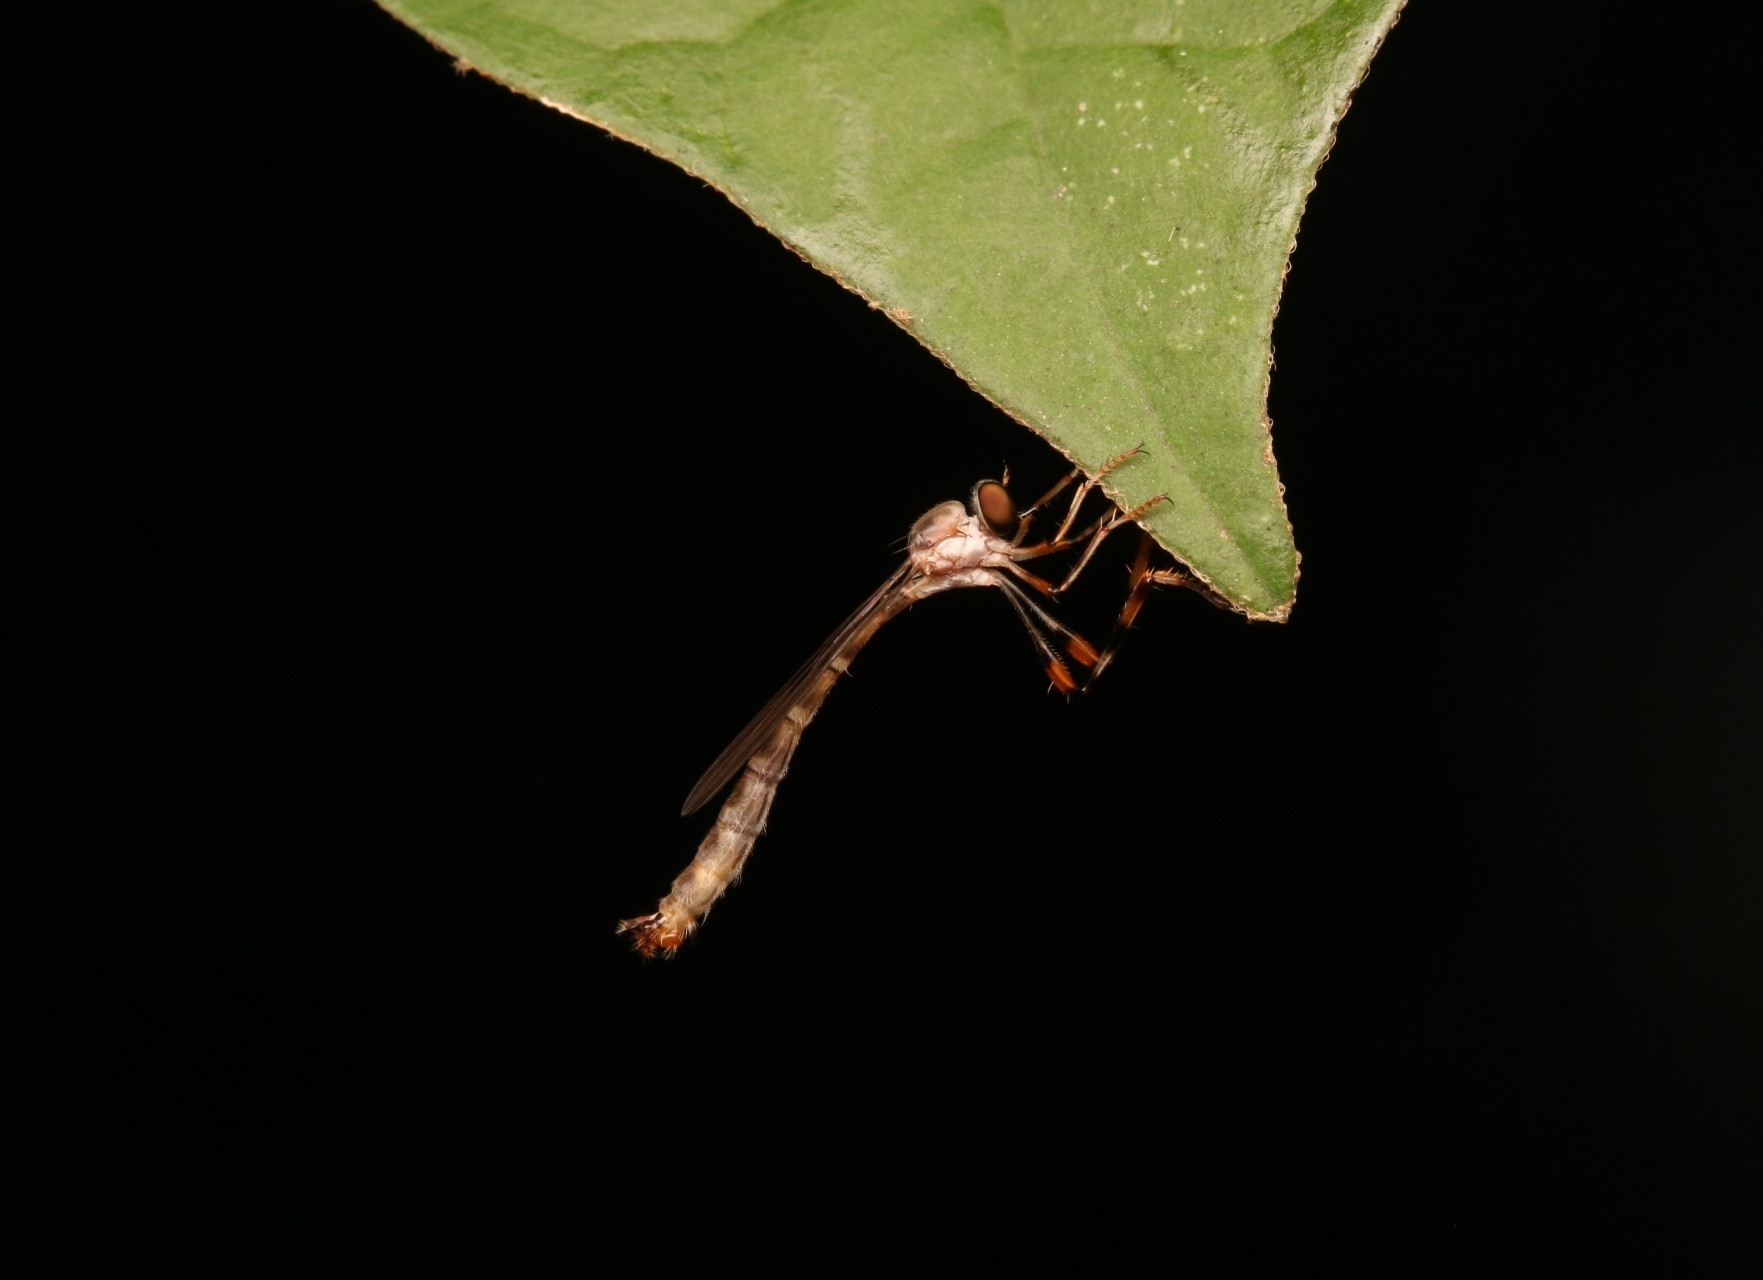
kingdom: Animalia
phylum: Arthropoda
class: Insecta
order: Diptera
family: Asilidae
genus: Psilonyx
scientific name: Psilonyx annulatus
